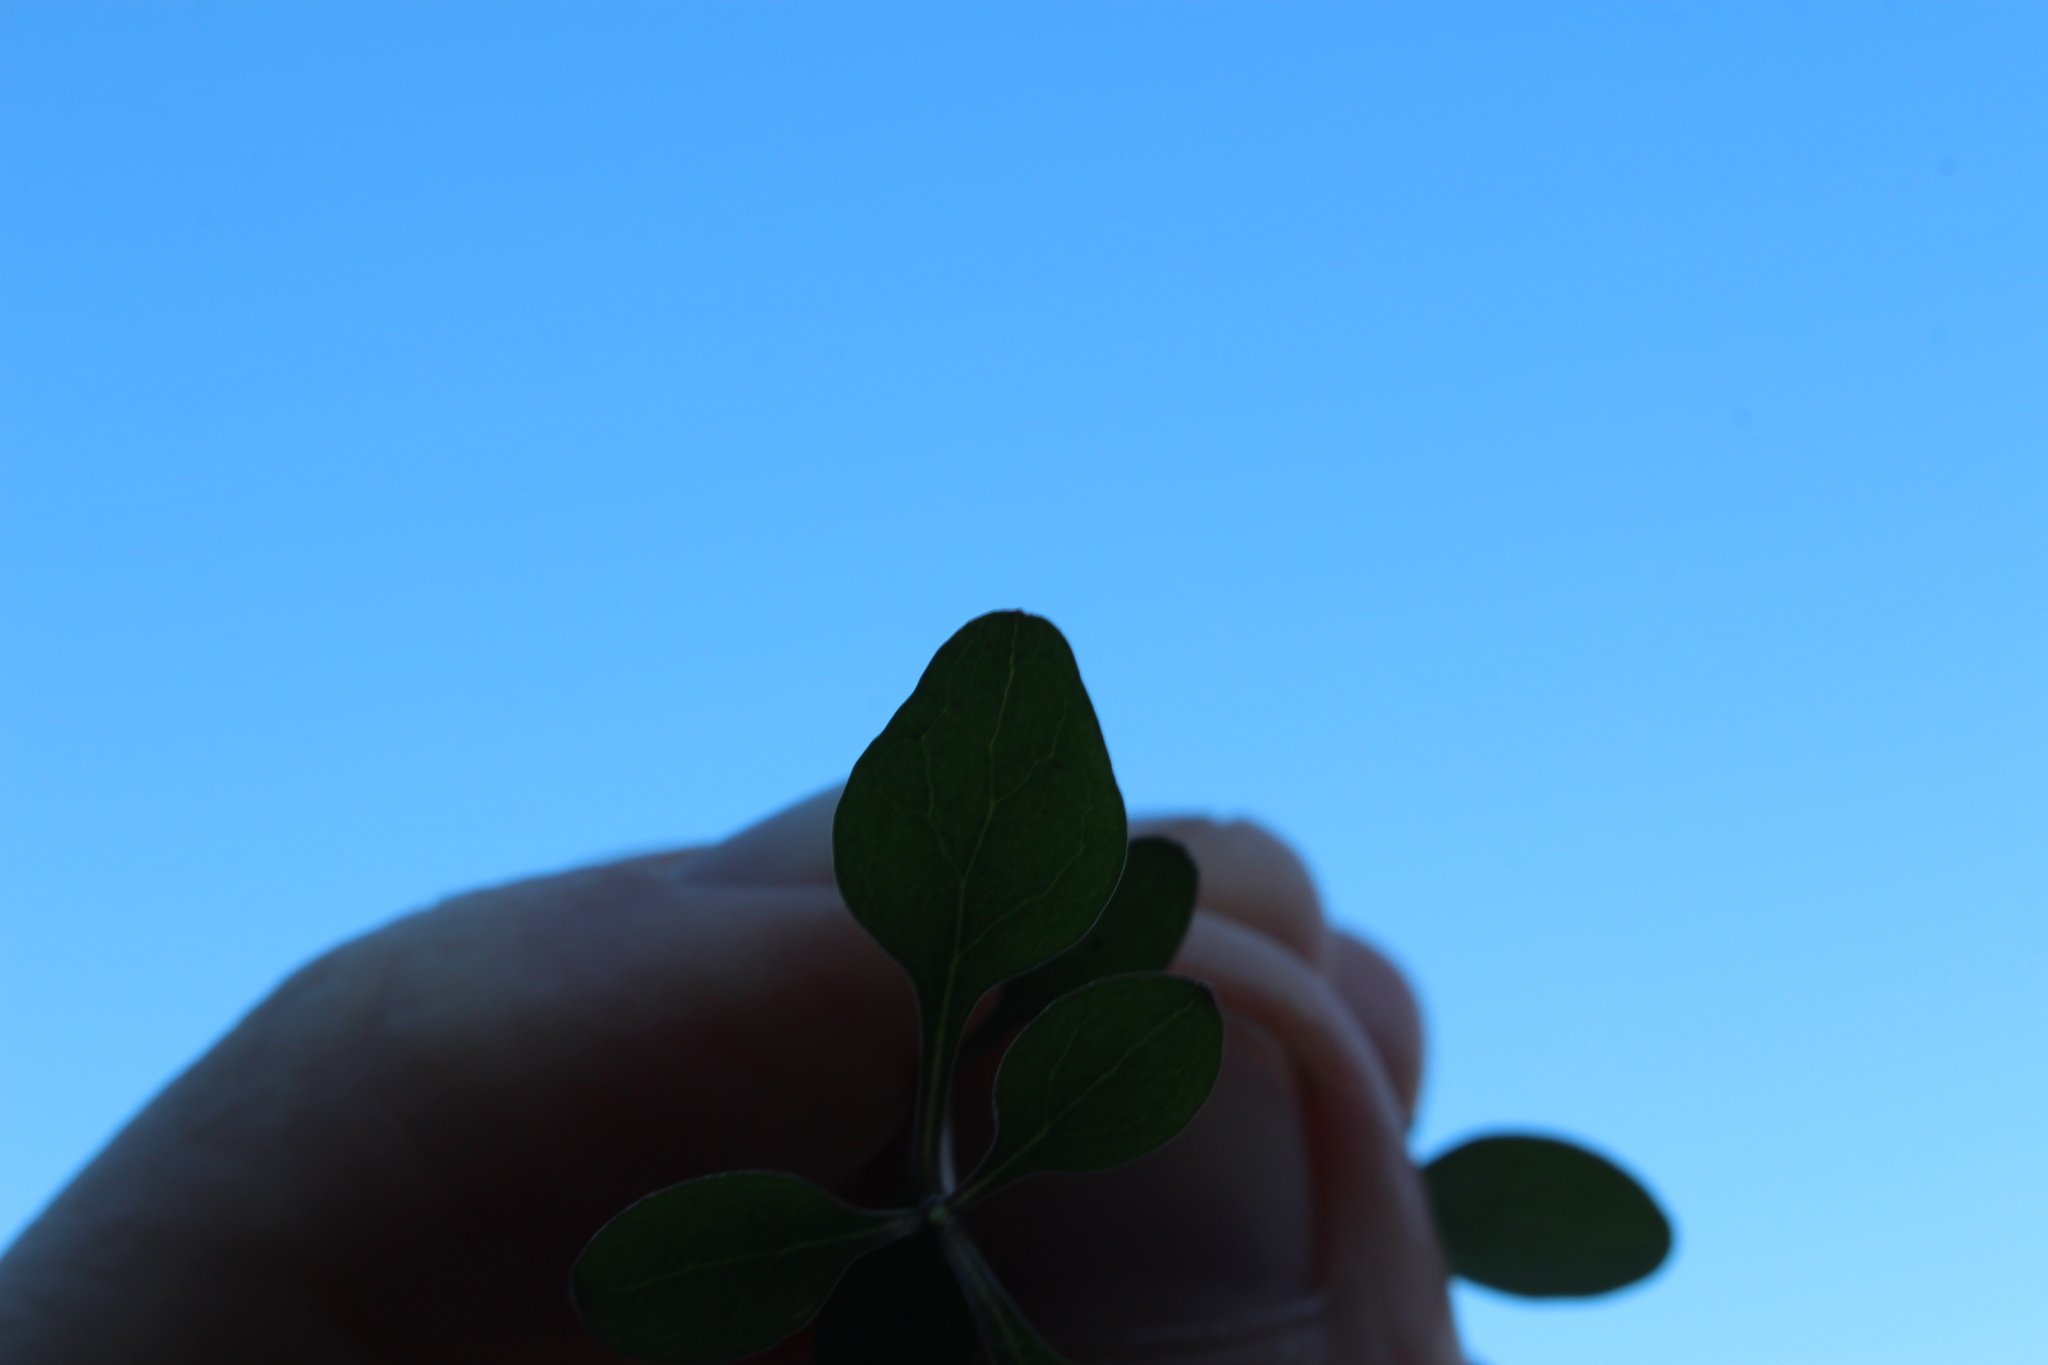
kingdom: Plantae
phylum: Tracheophyta
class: Magnoliopsida
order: Gentianales
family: Rubiaceae
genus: Coprosma
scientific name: Coprosma rigida
